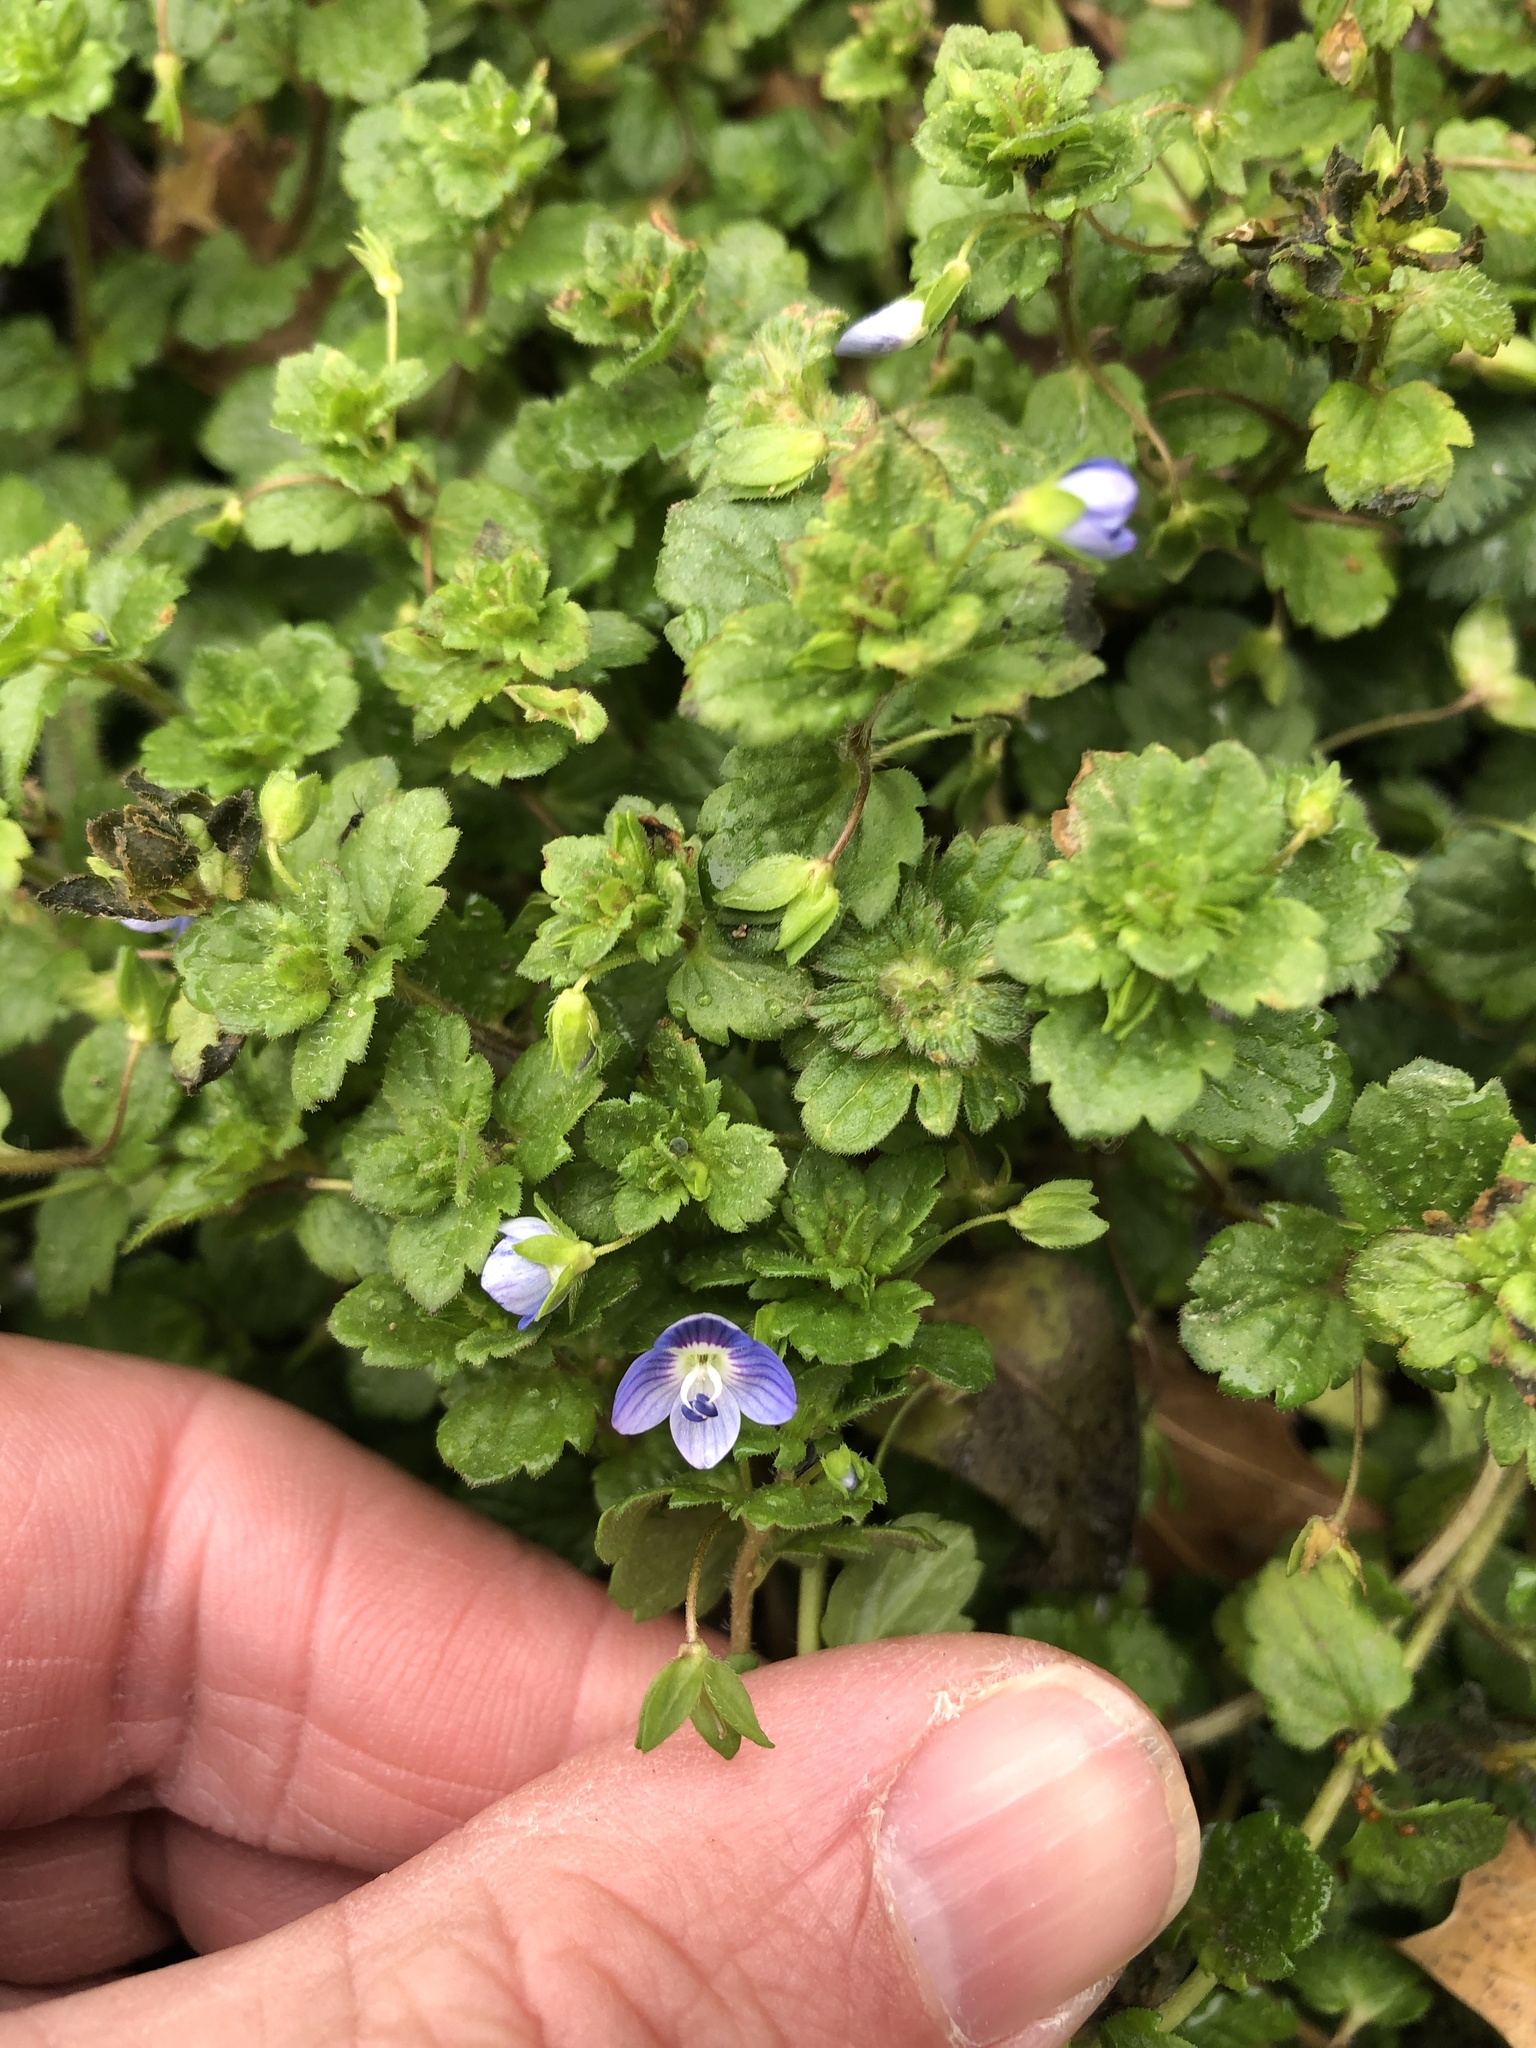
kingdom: Plantae
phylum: Tracheophyta
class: Magnoliopsida
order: Lamiales
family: Plantaginaceae
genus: Veronica
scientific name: Veronica persica
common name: Common field-speedwell
